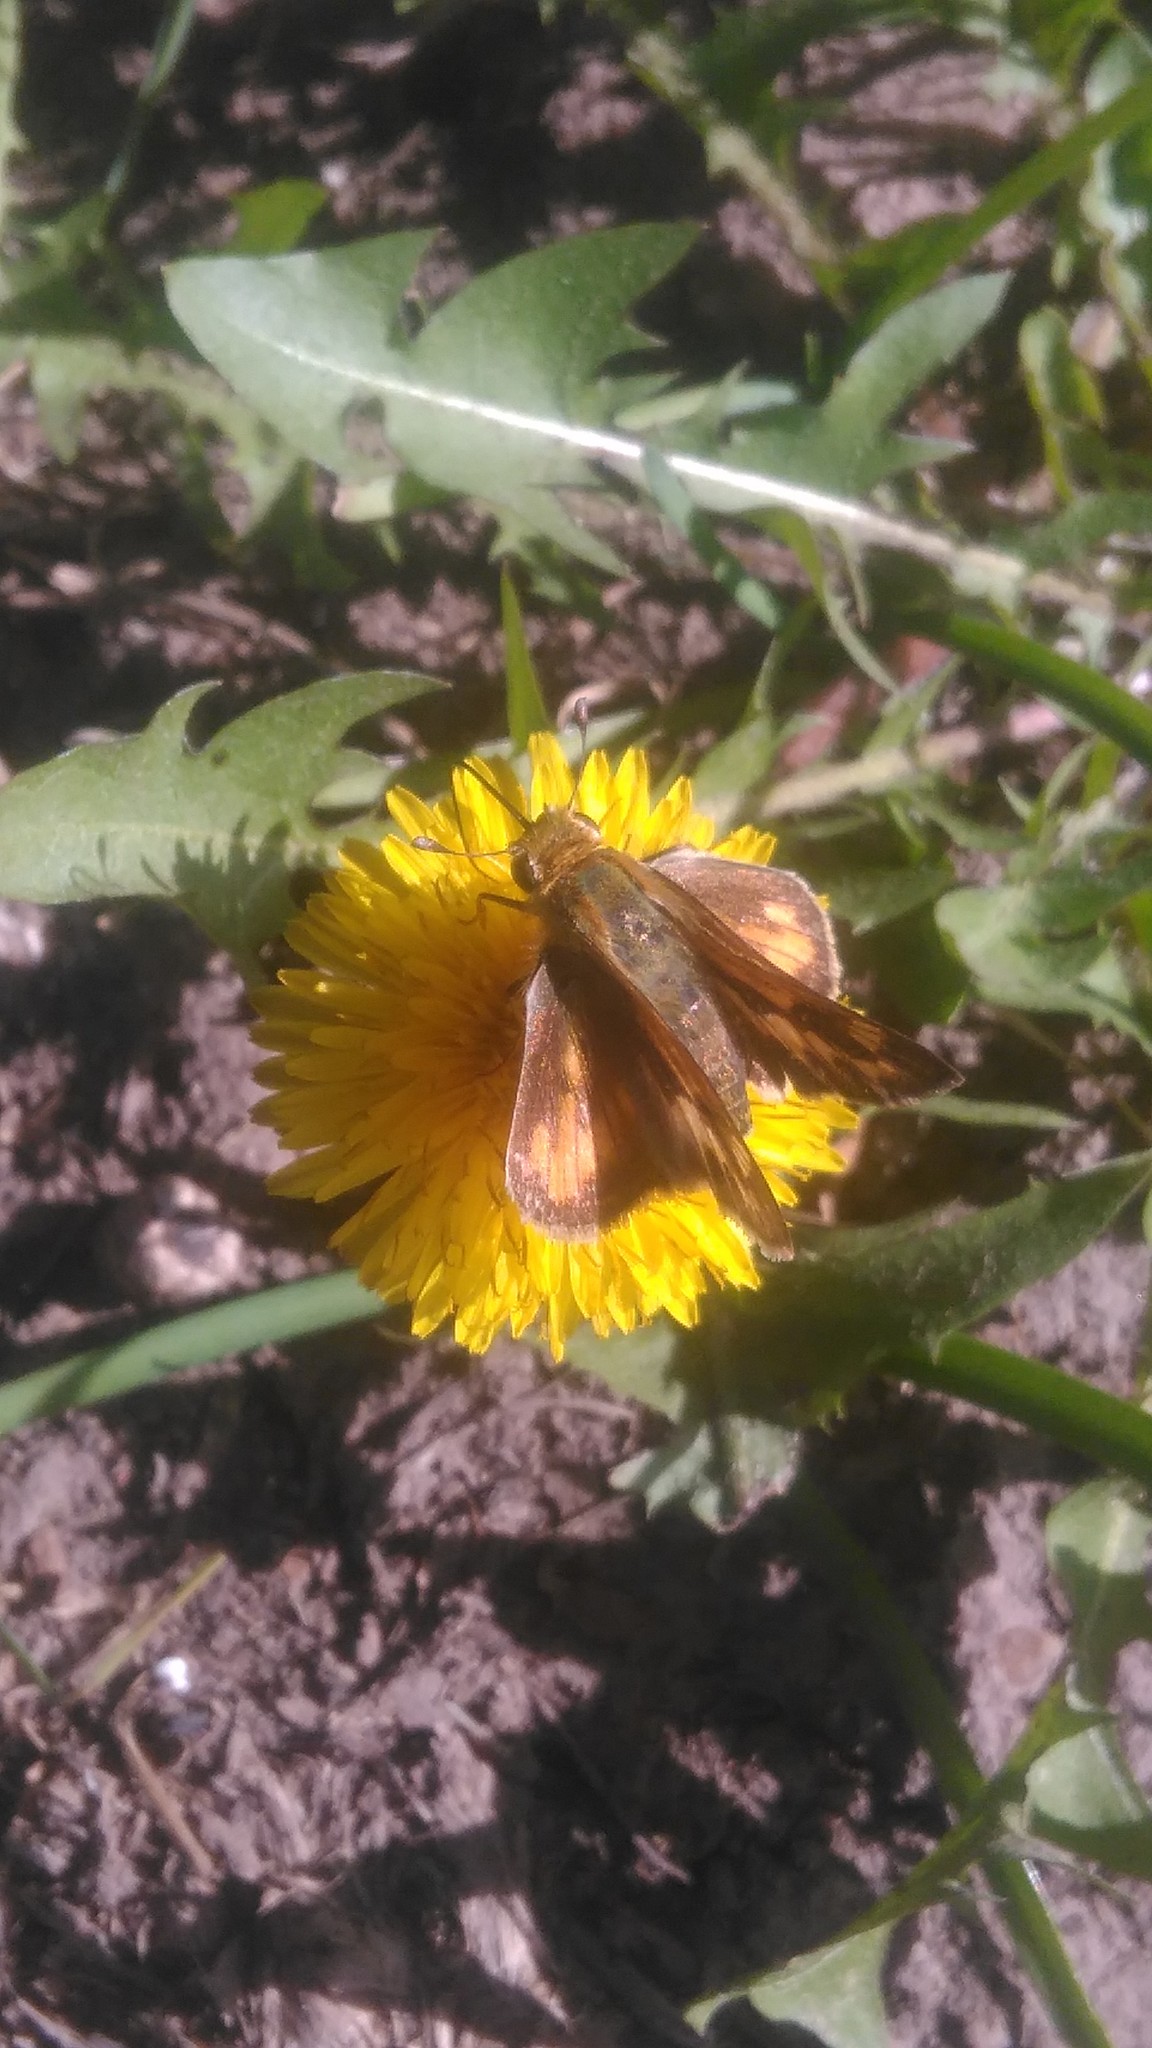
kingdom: Animalia
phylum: Arthropoda
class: Insecta
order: Lepidoptera
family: Hesperiidae
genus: Hylephila
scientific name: Hylephila phyleus
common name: Fiery skipper
